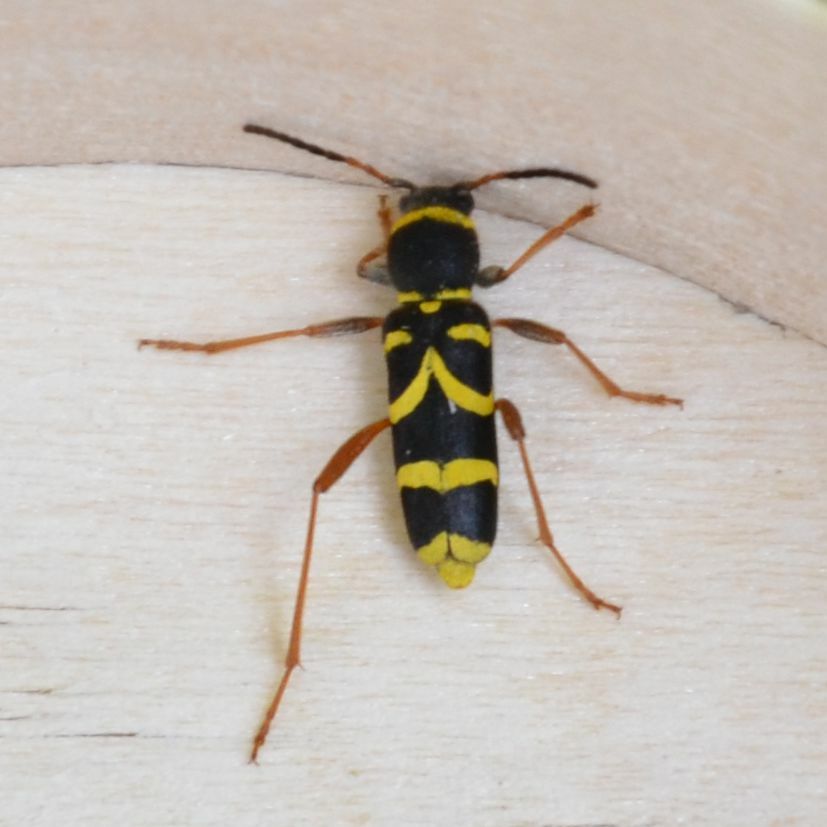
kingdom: Animalia
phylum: Arthropoda
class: Insecta
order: Coleoptera
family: Cerambycidae
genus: Clytus
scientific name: Clytus arietis
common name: Wasp beetle
